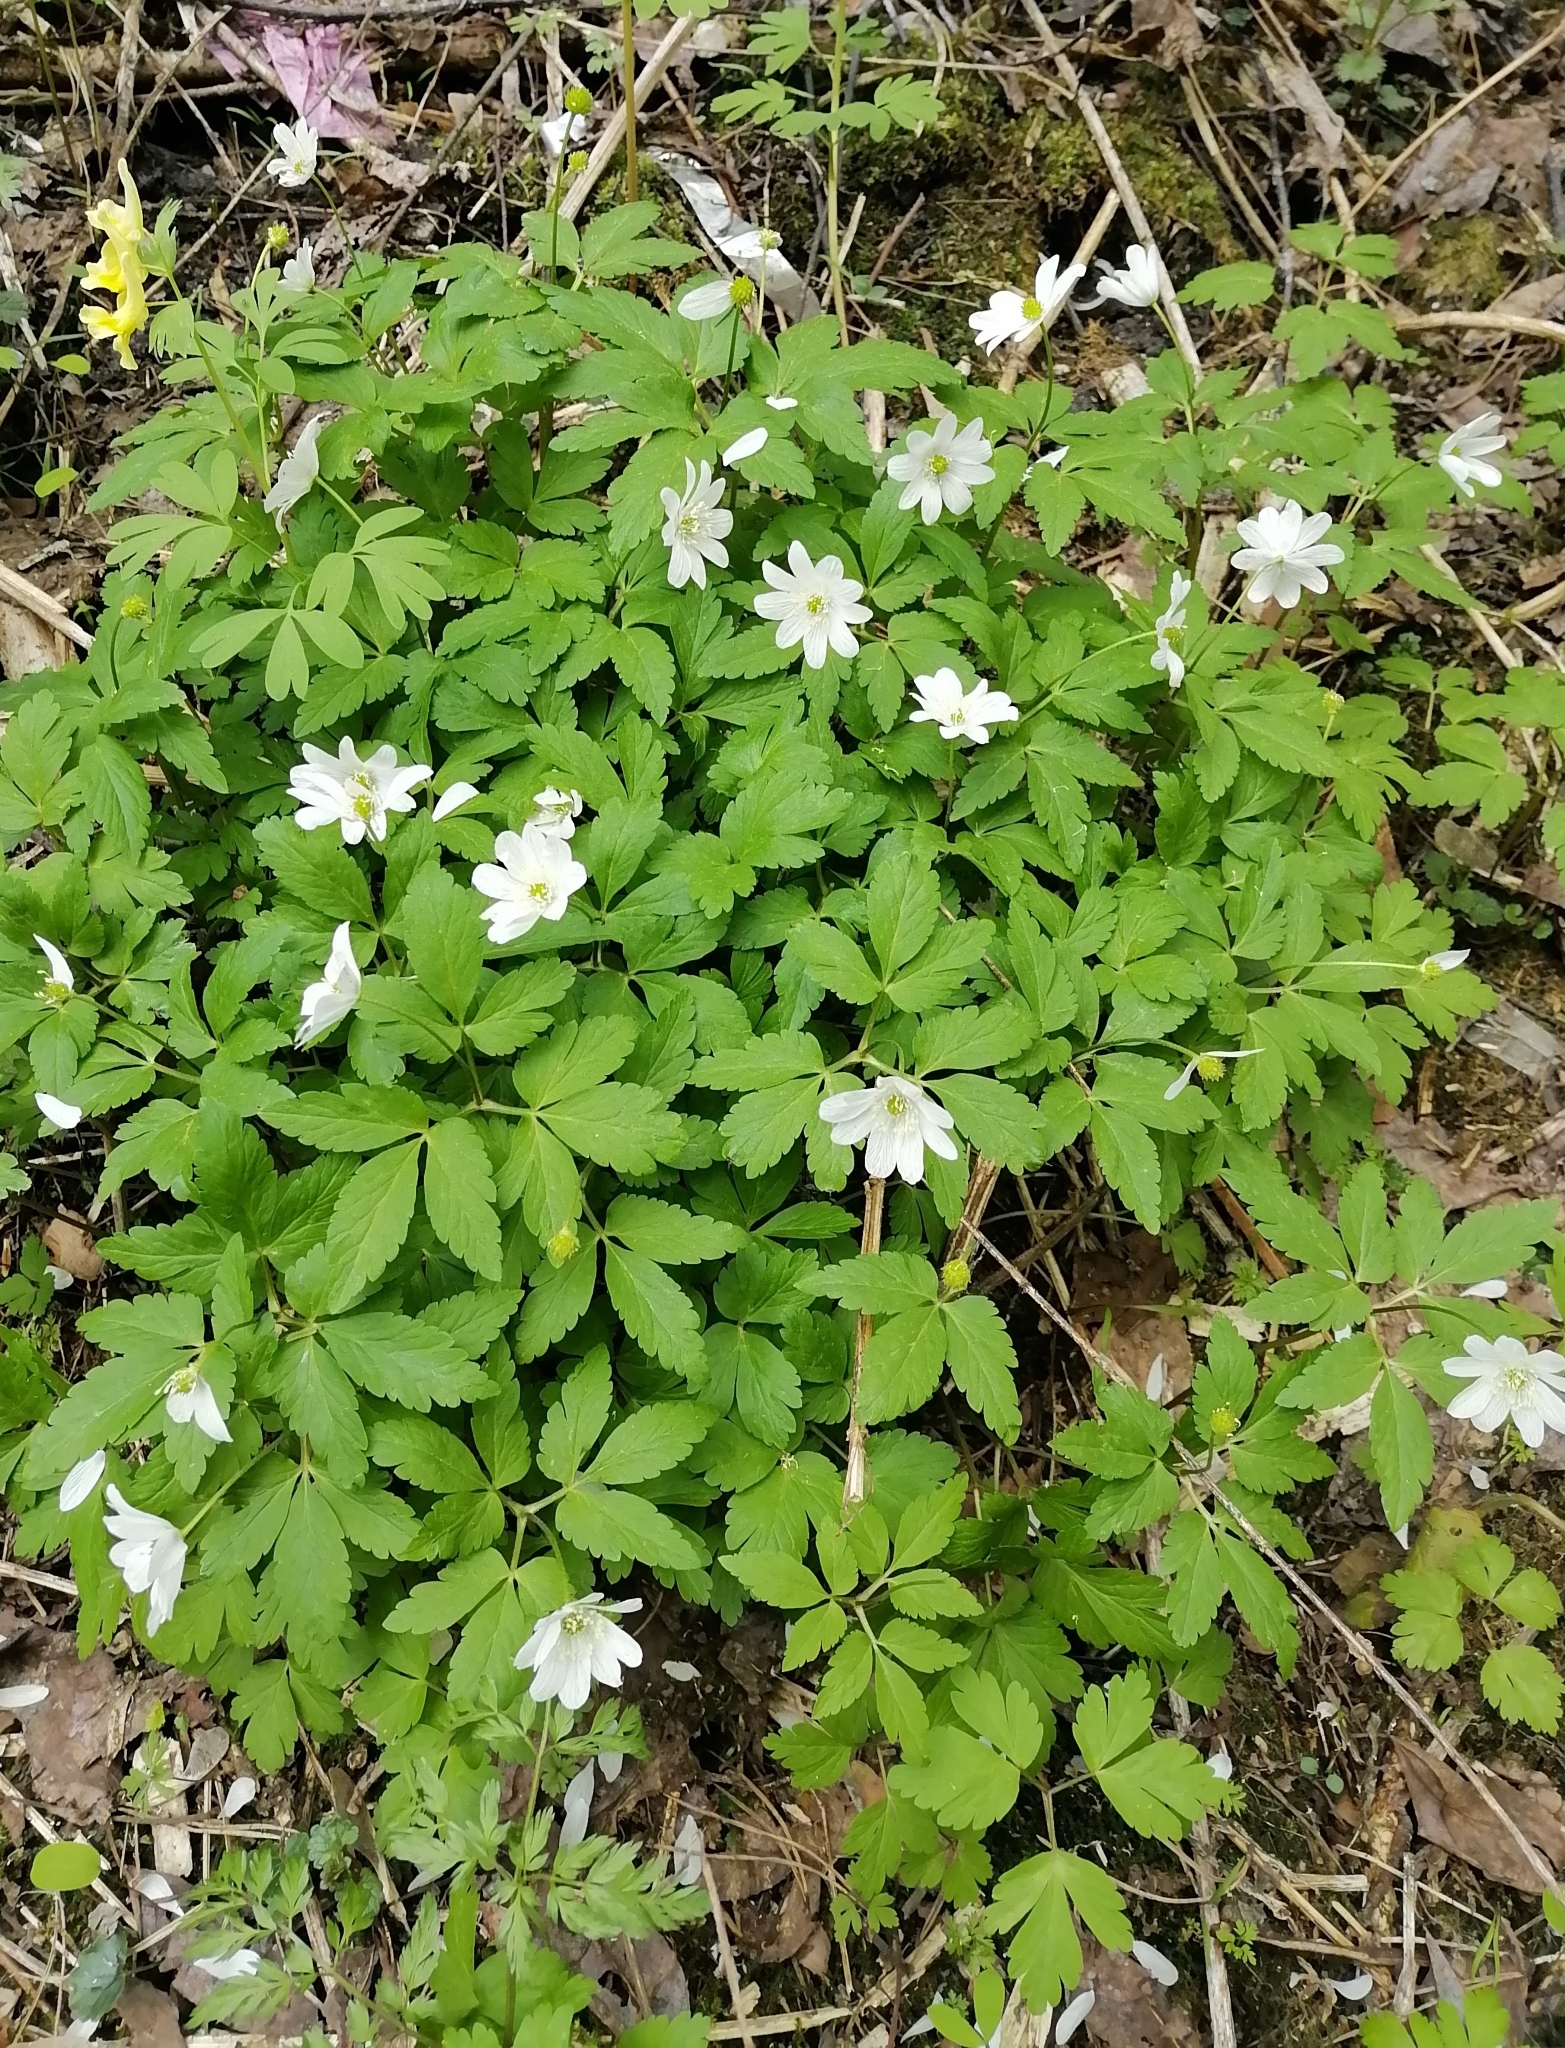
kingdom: Plantae
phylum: Tracheophyta
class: Magnoliopsida
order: Ranunculales
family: Ranunculaceae
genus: Anemone
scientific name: Anemone altaica
